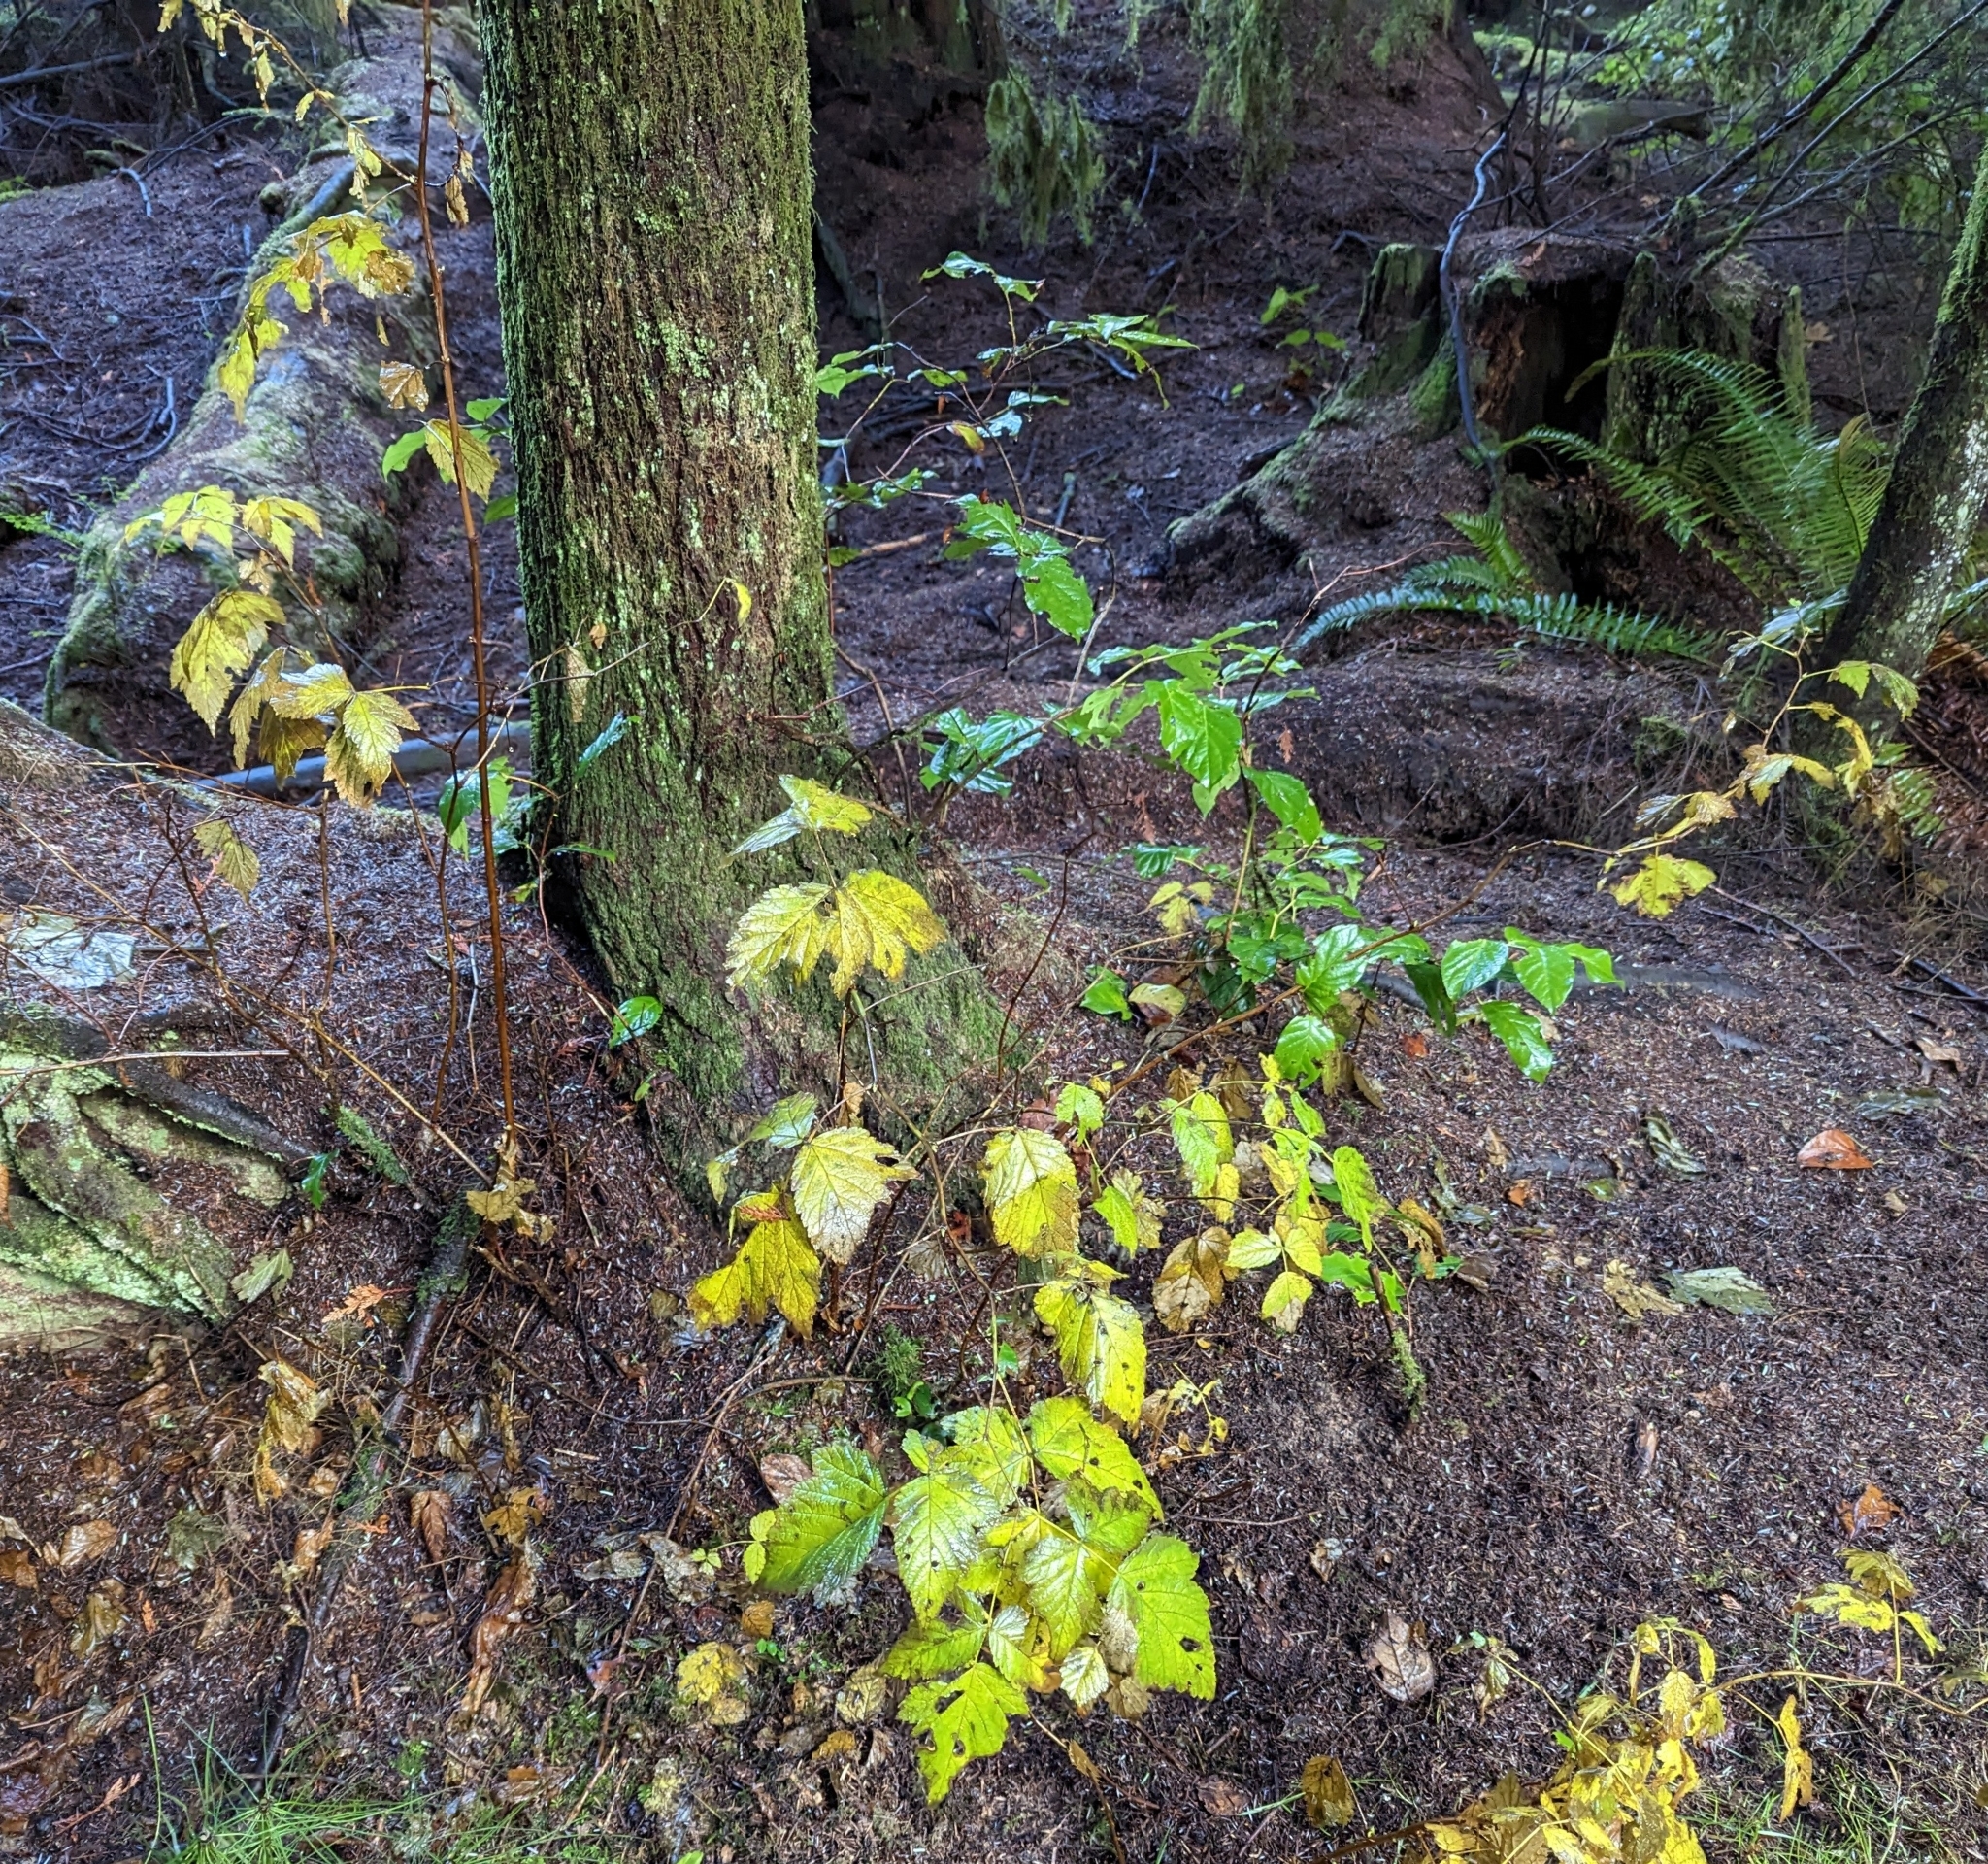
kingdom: Plantae
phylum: Tracheophyta
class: Magnoliopsida
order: Rosales
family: Rosaceae
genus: Rubus
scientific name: Rubus spectabilis
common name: Salmonberry
